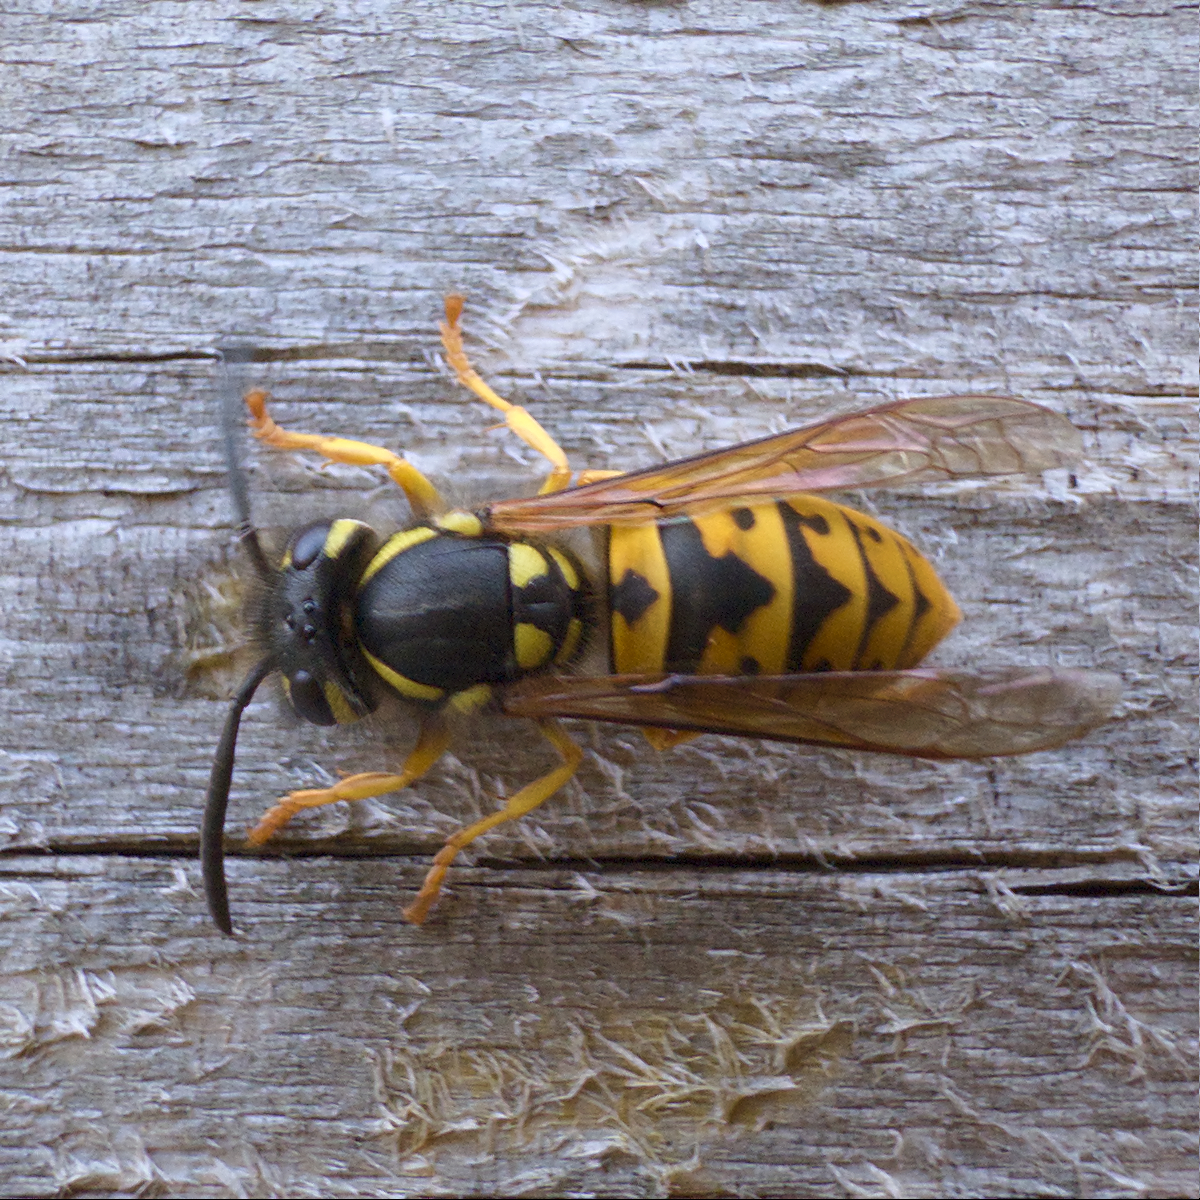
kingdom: Animalia
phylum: Arthropoda
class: Insecta
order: Hymenoptera
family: Vespidae
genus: Vespula
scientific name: Vespula germanica
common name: German wasp
